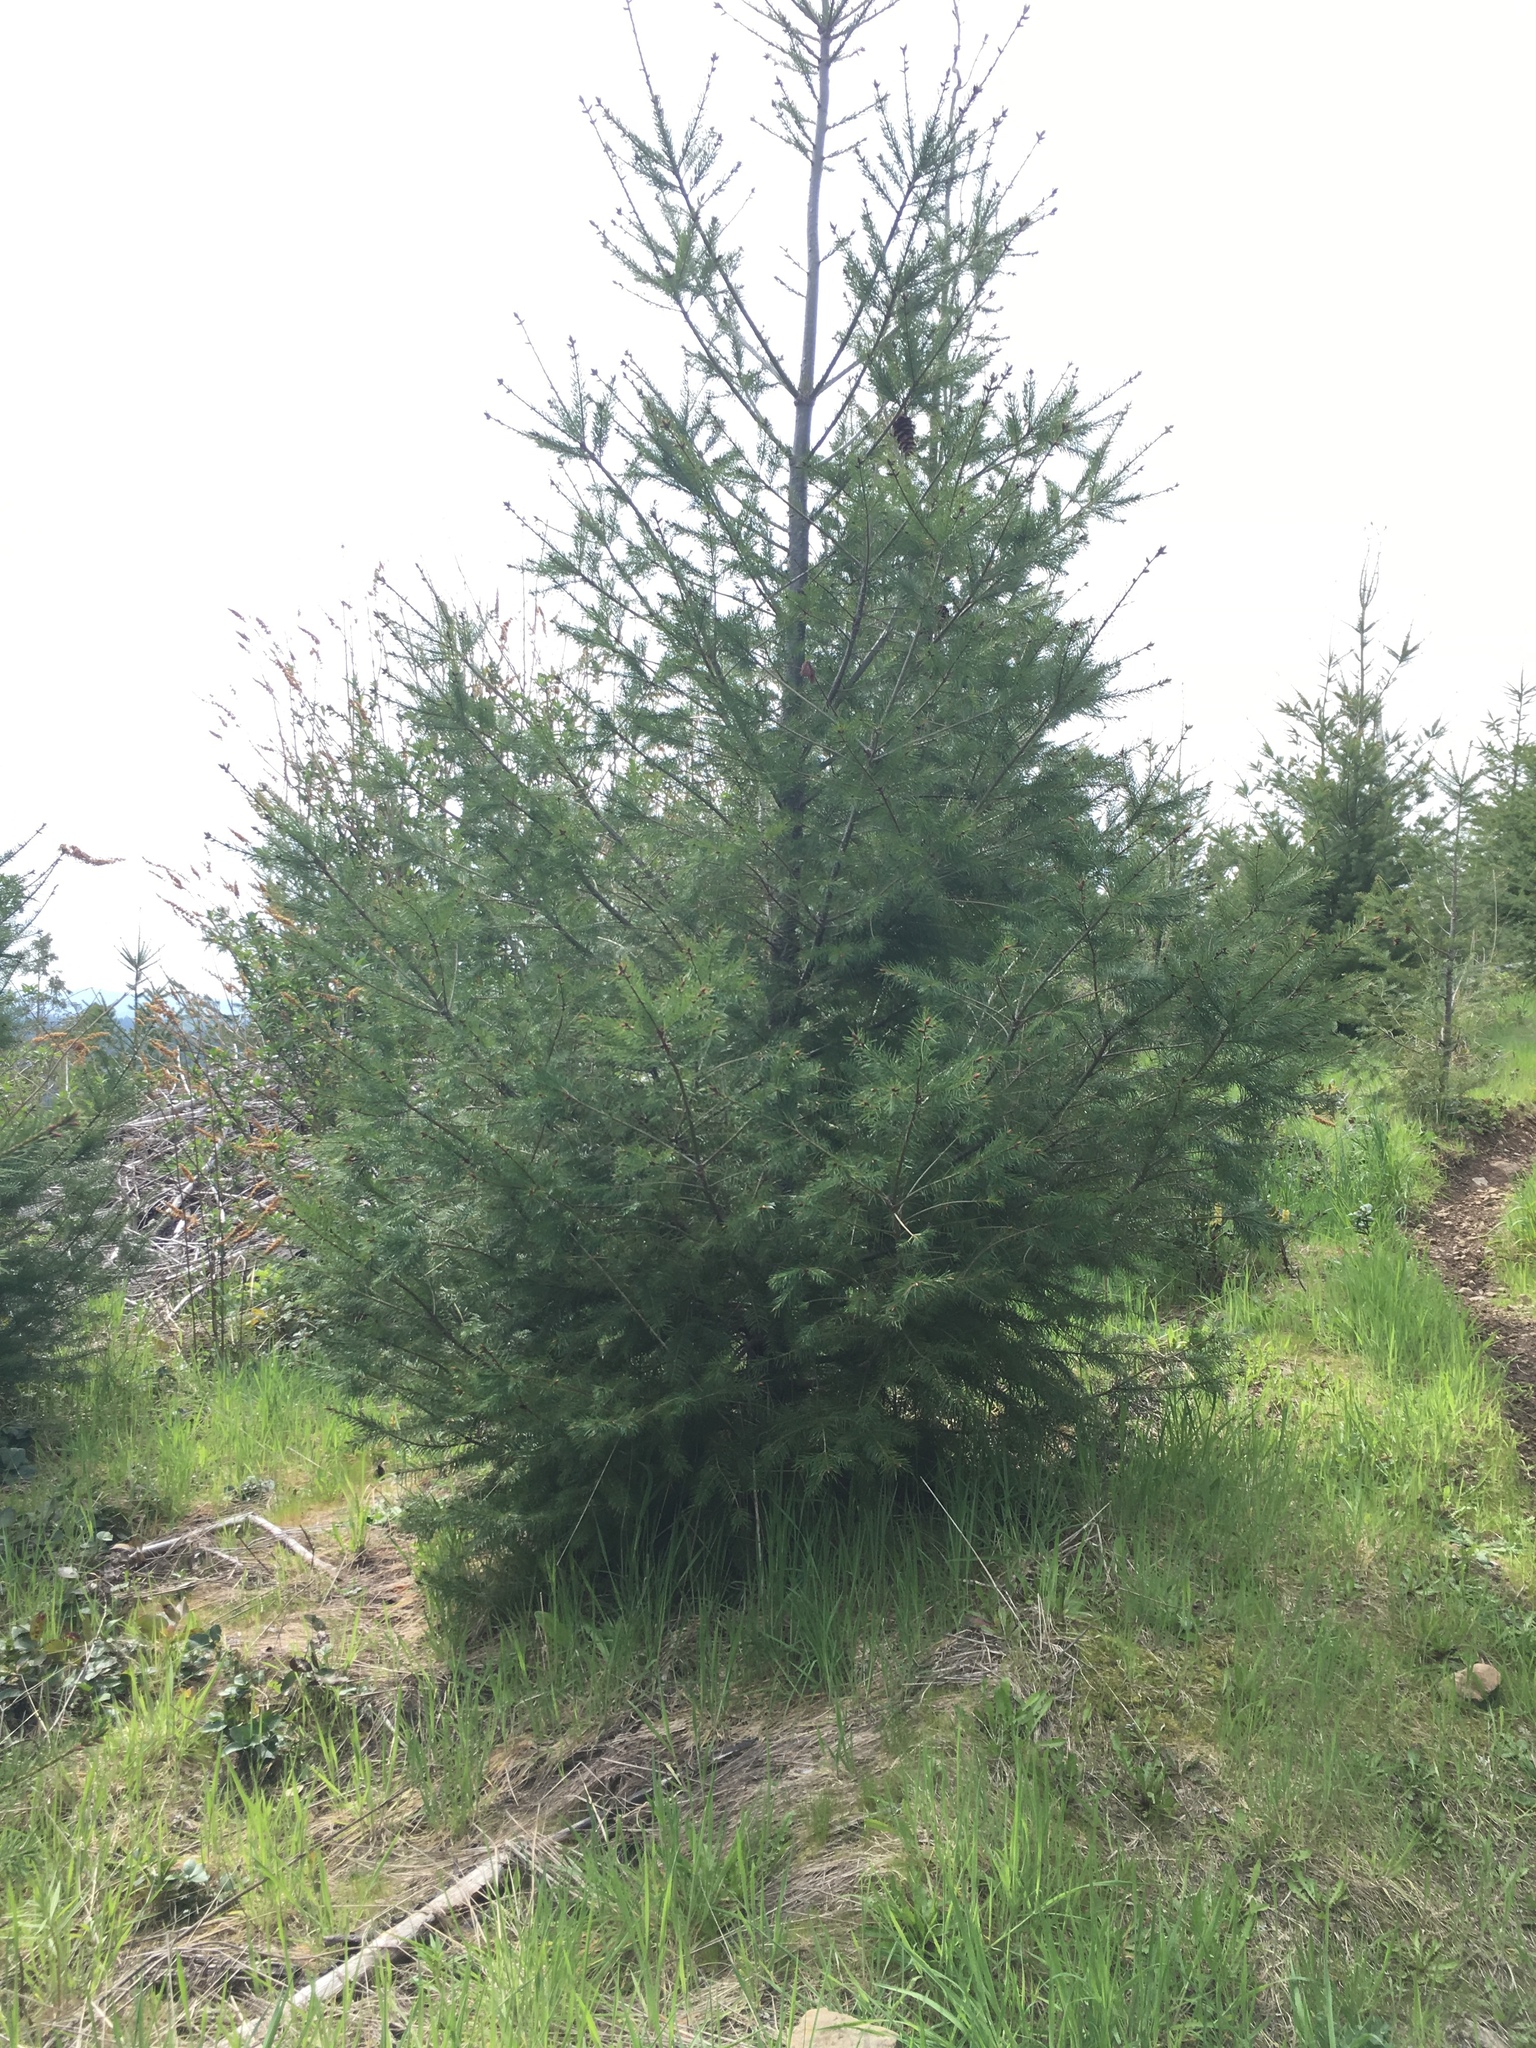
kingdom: Plantae
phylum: Tracheophyta
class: Pinopsida
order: Pinales
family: Pinaceae
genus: Pseudotsuga
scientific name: Pseudotsuga menziesii
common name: Douglas fir
